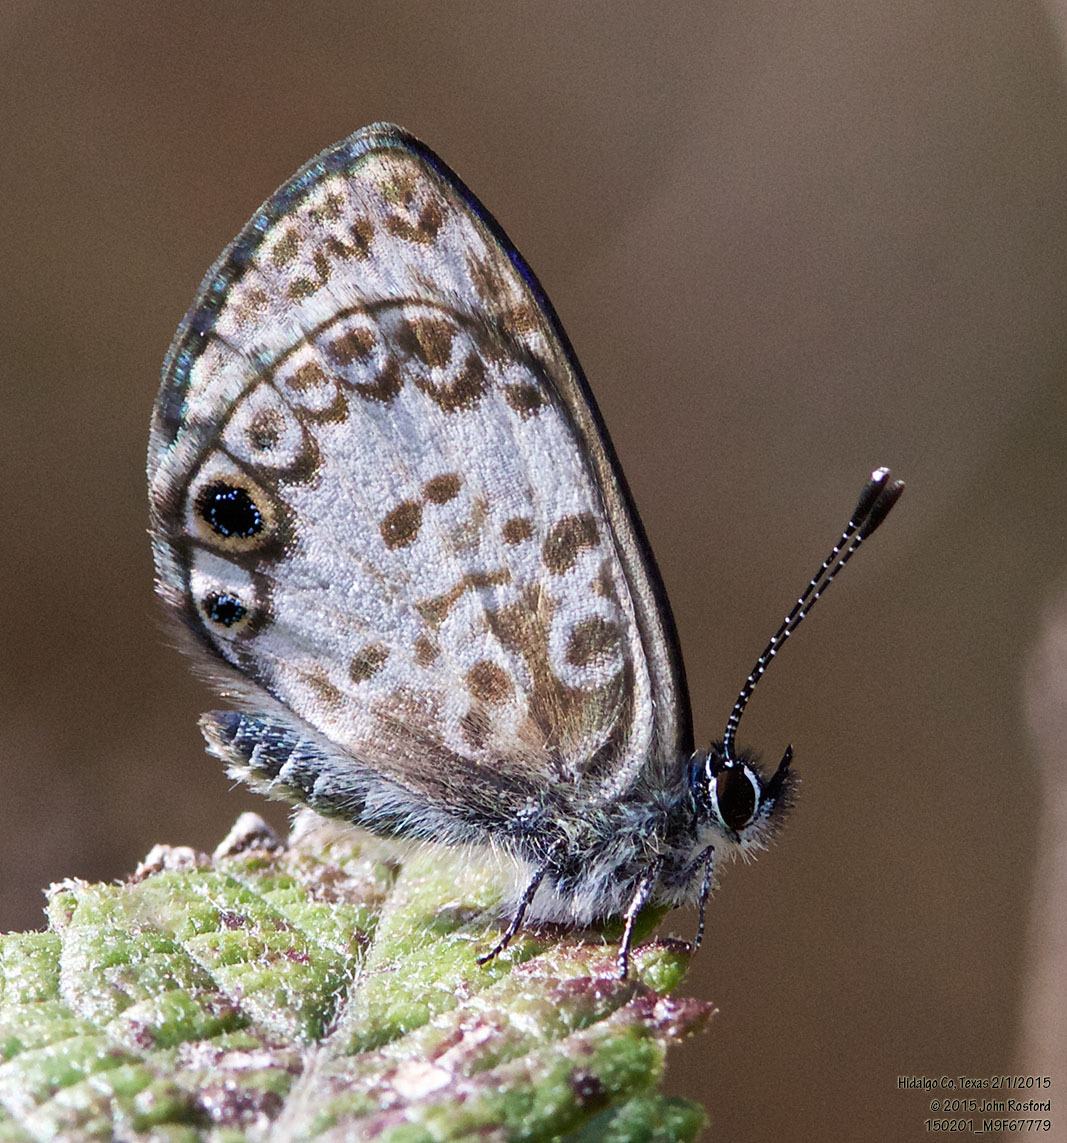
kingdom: Animalia
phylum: Arthropoda
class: Insecta
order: Lepidoptera
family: Lycaenidae
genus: Leptotes
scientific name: Leptotes cassius
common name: Cassius blue
